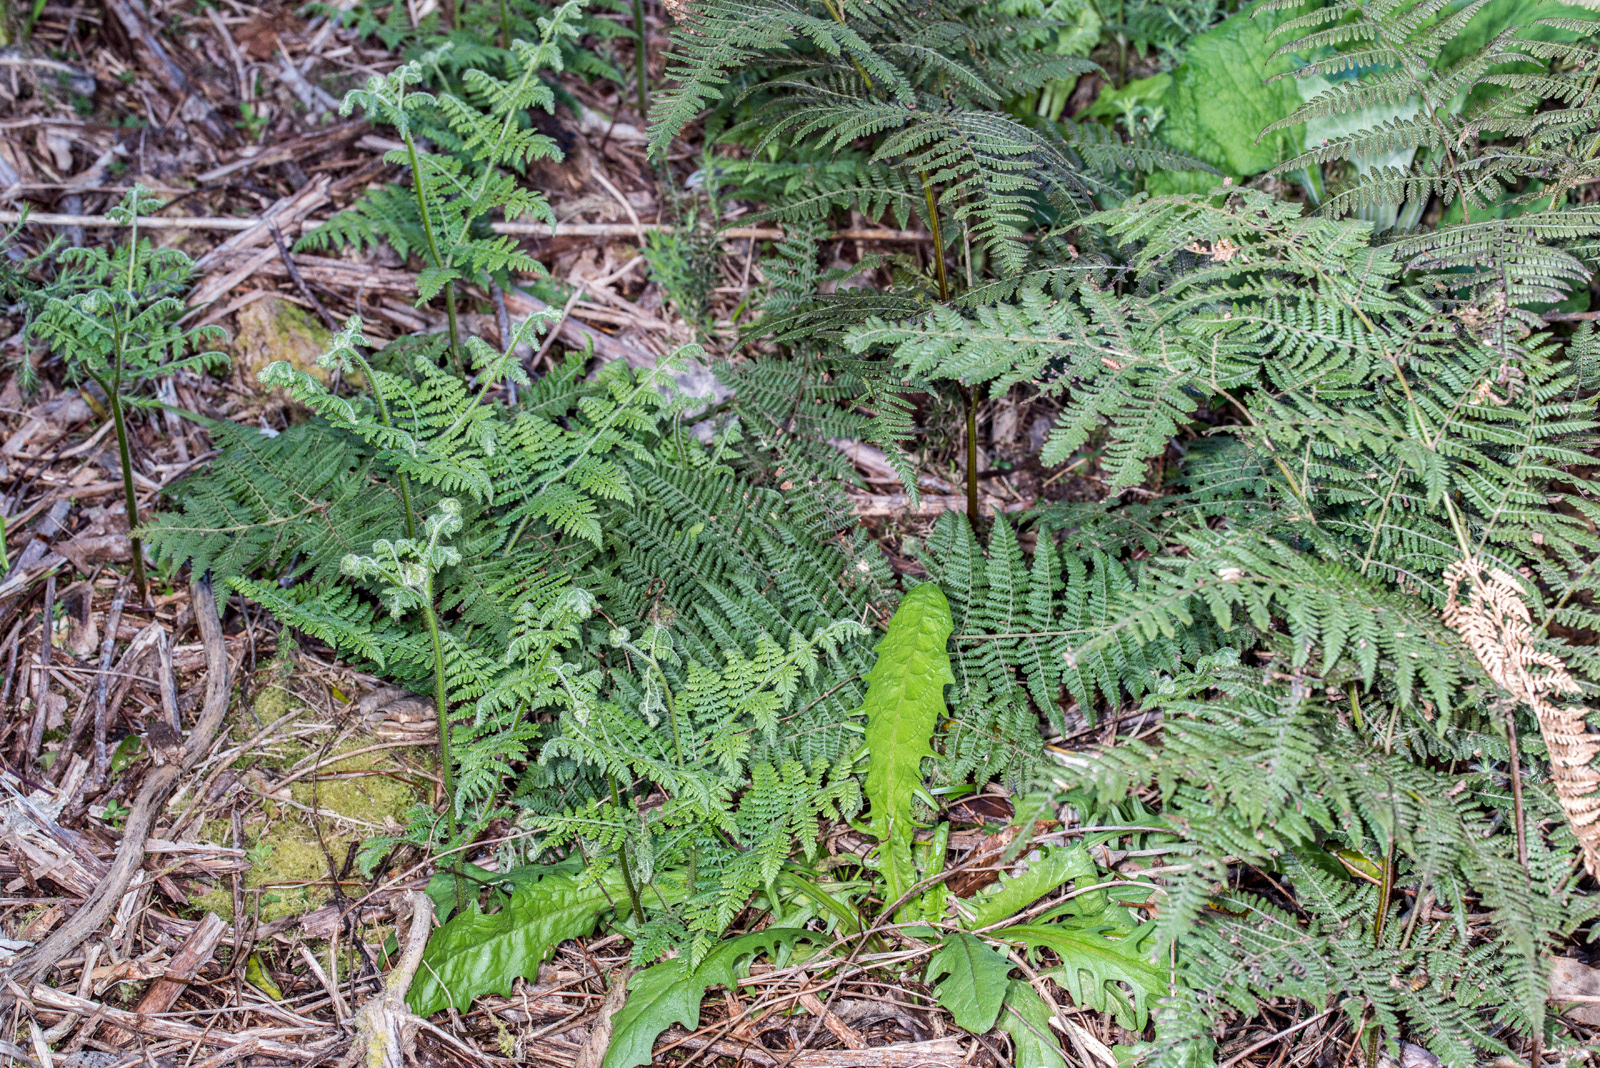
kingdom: Plantae
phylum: Tracheophyta
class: Polypodiopsida
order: Polypodiales
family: Dennstaedtiaceae
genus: Hypolepis
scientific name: Hypolepis ambigua
